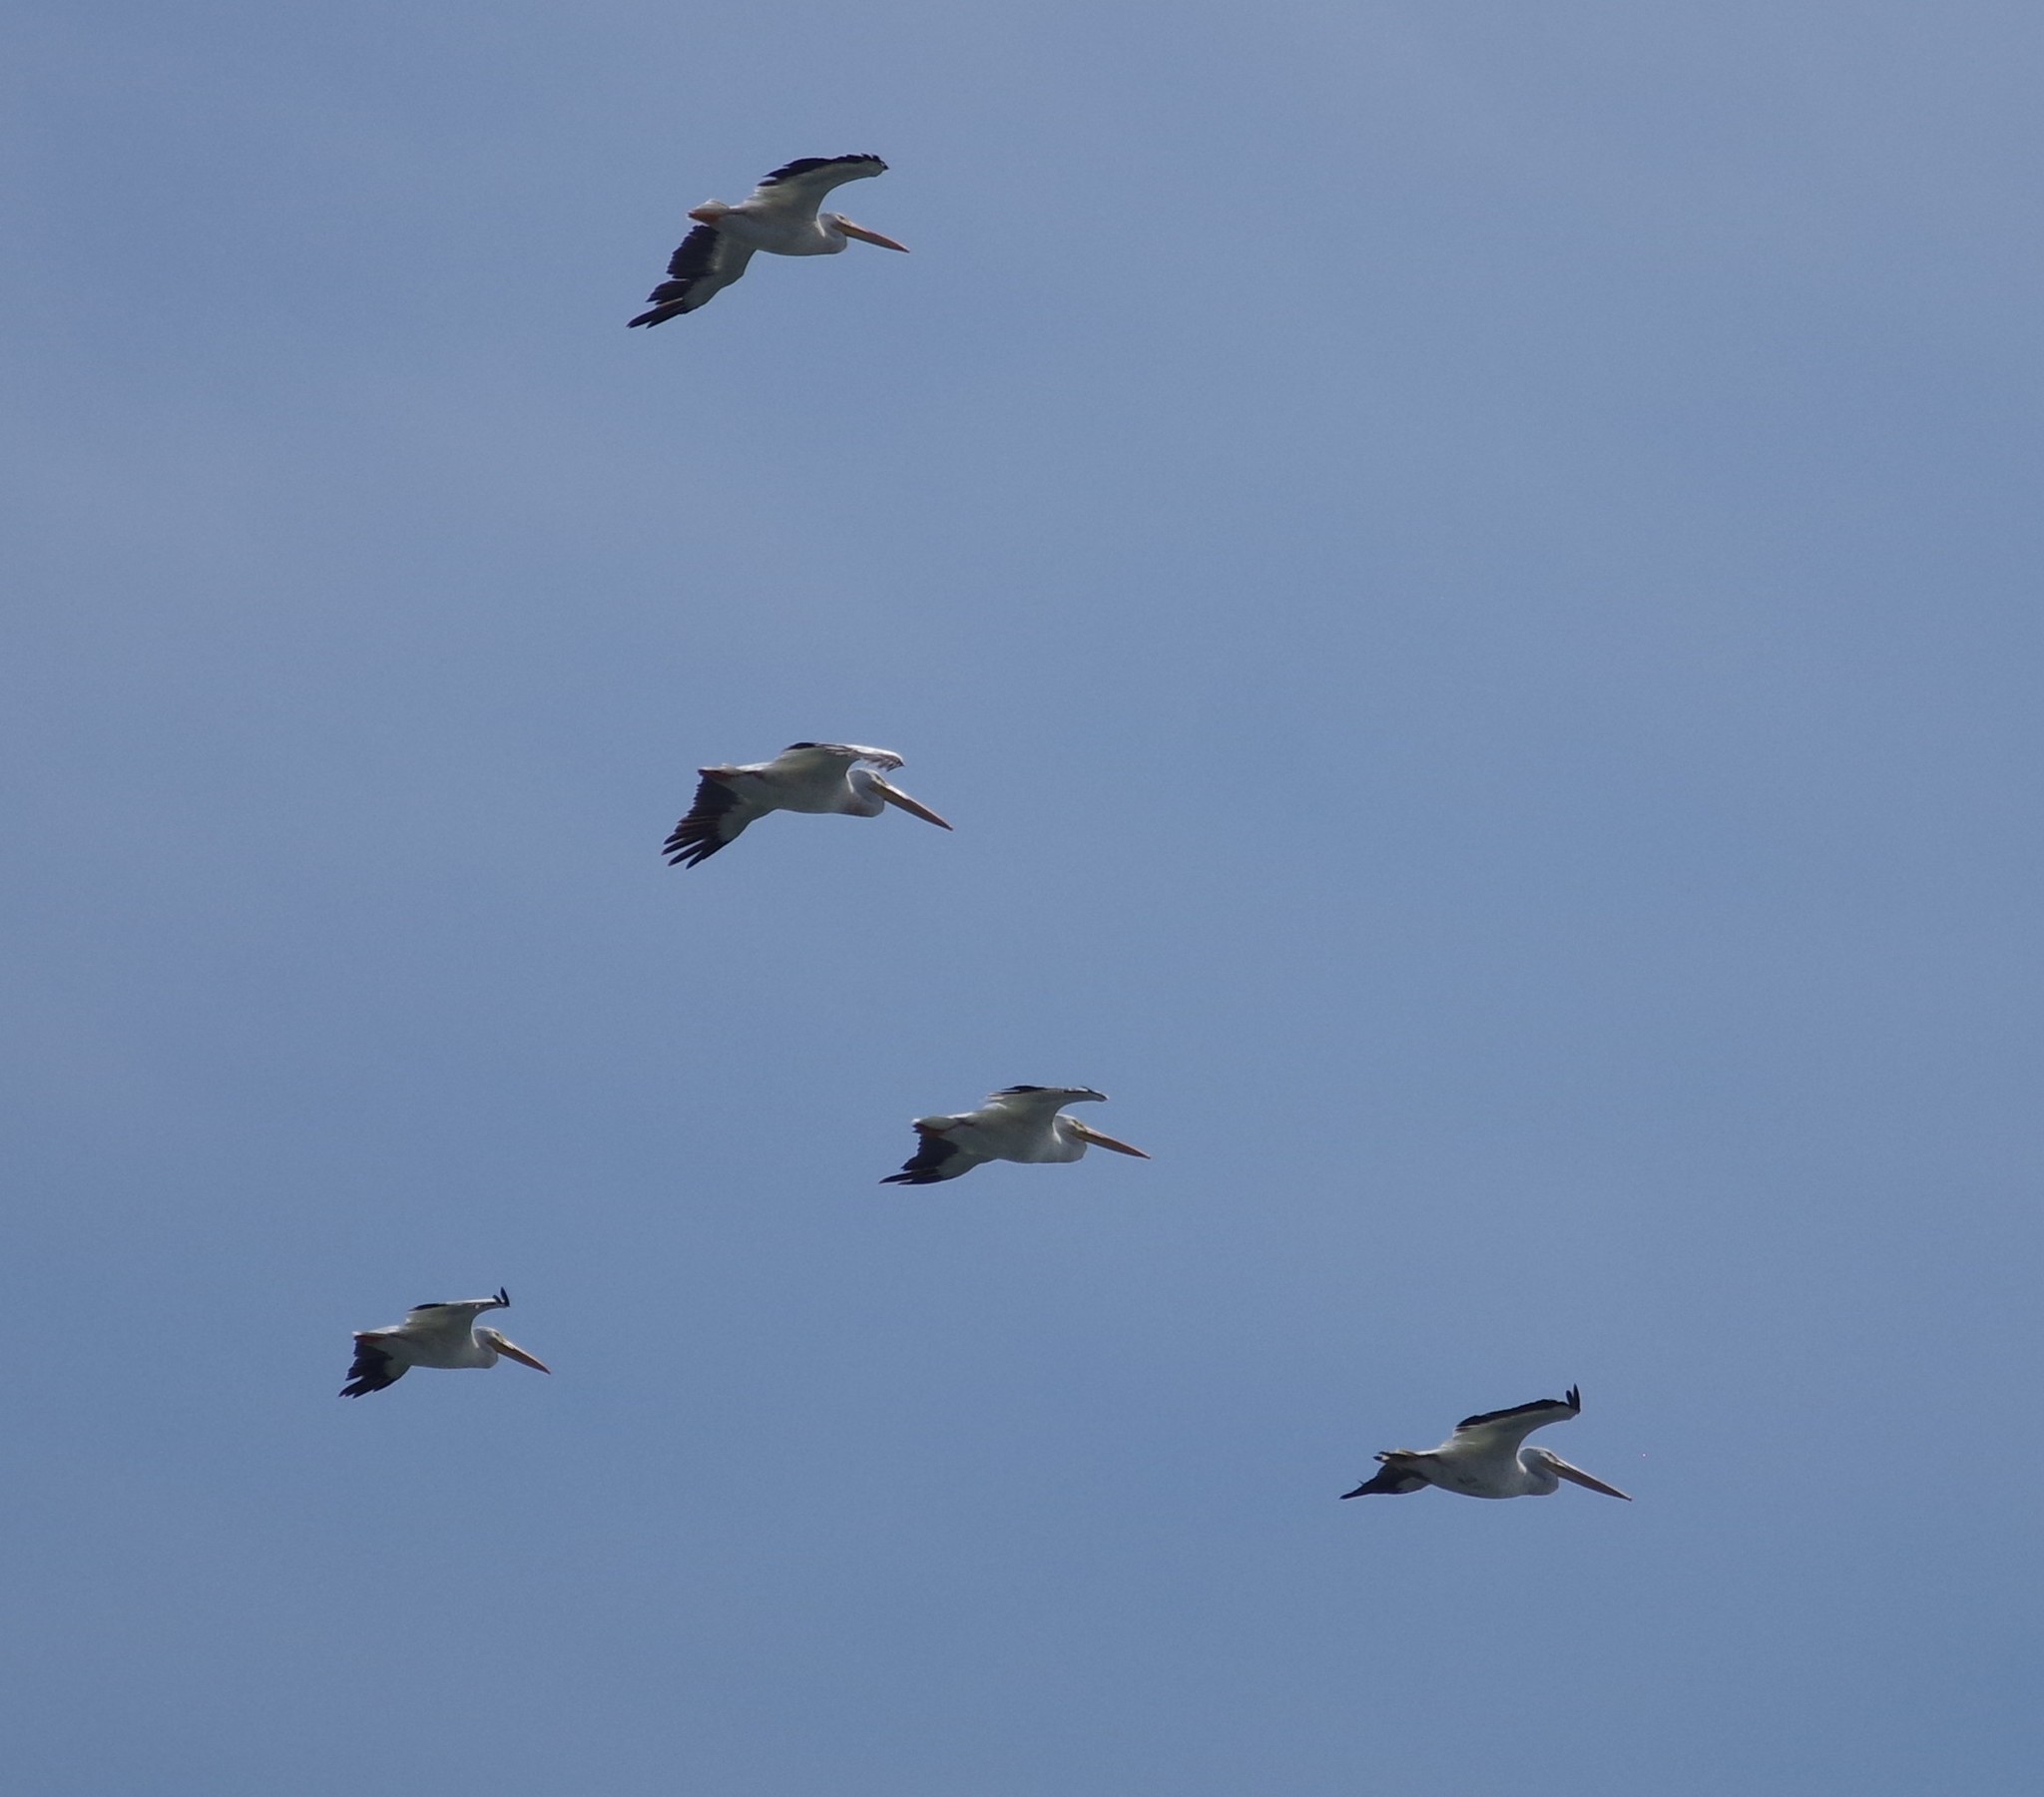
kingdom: Animalia
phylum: Chordata
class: Aves
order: Pelecaniformes
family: Pelecanidae
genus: Pelecanus
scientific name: Pelecanus erythrorhynchos
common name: American white pelican
